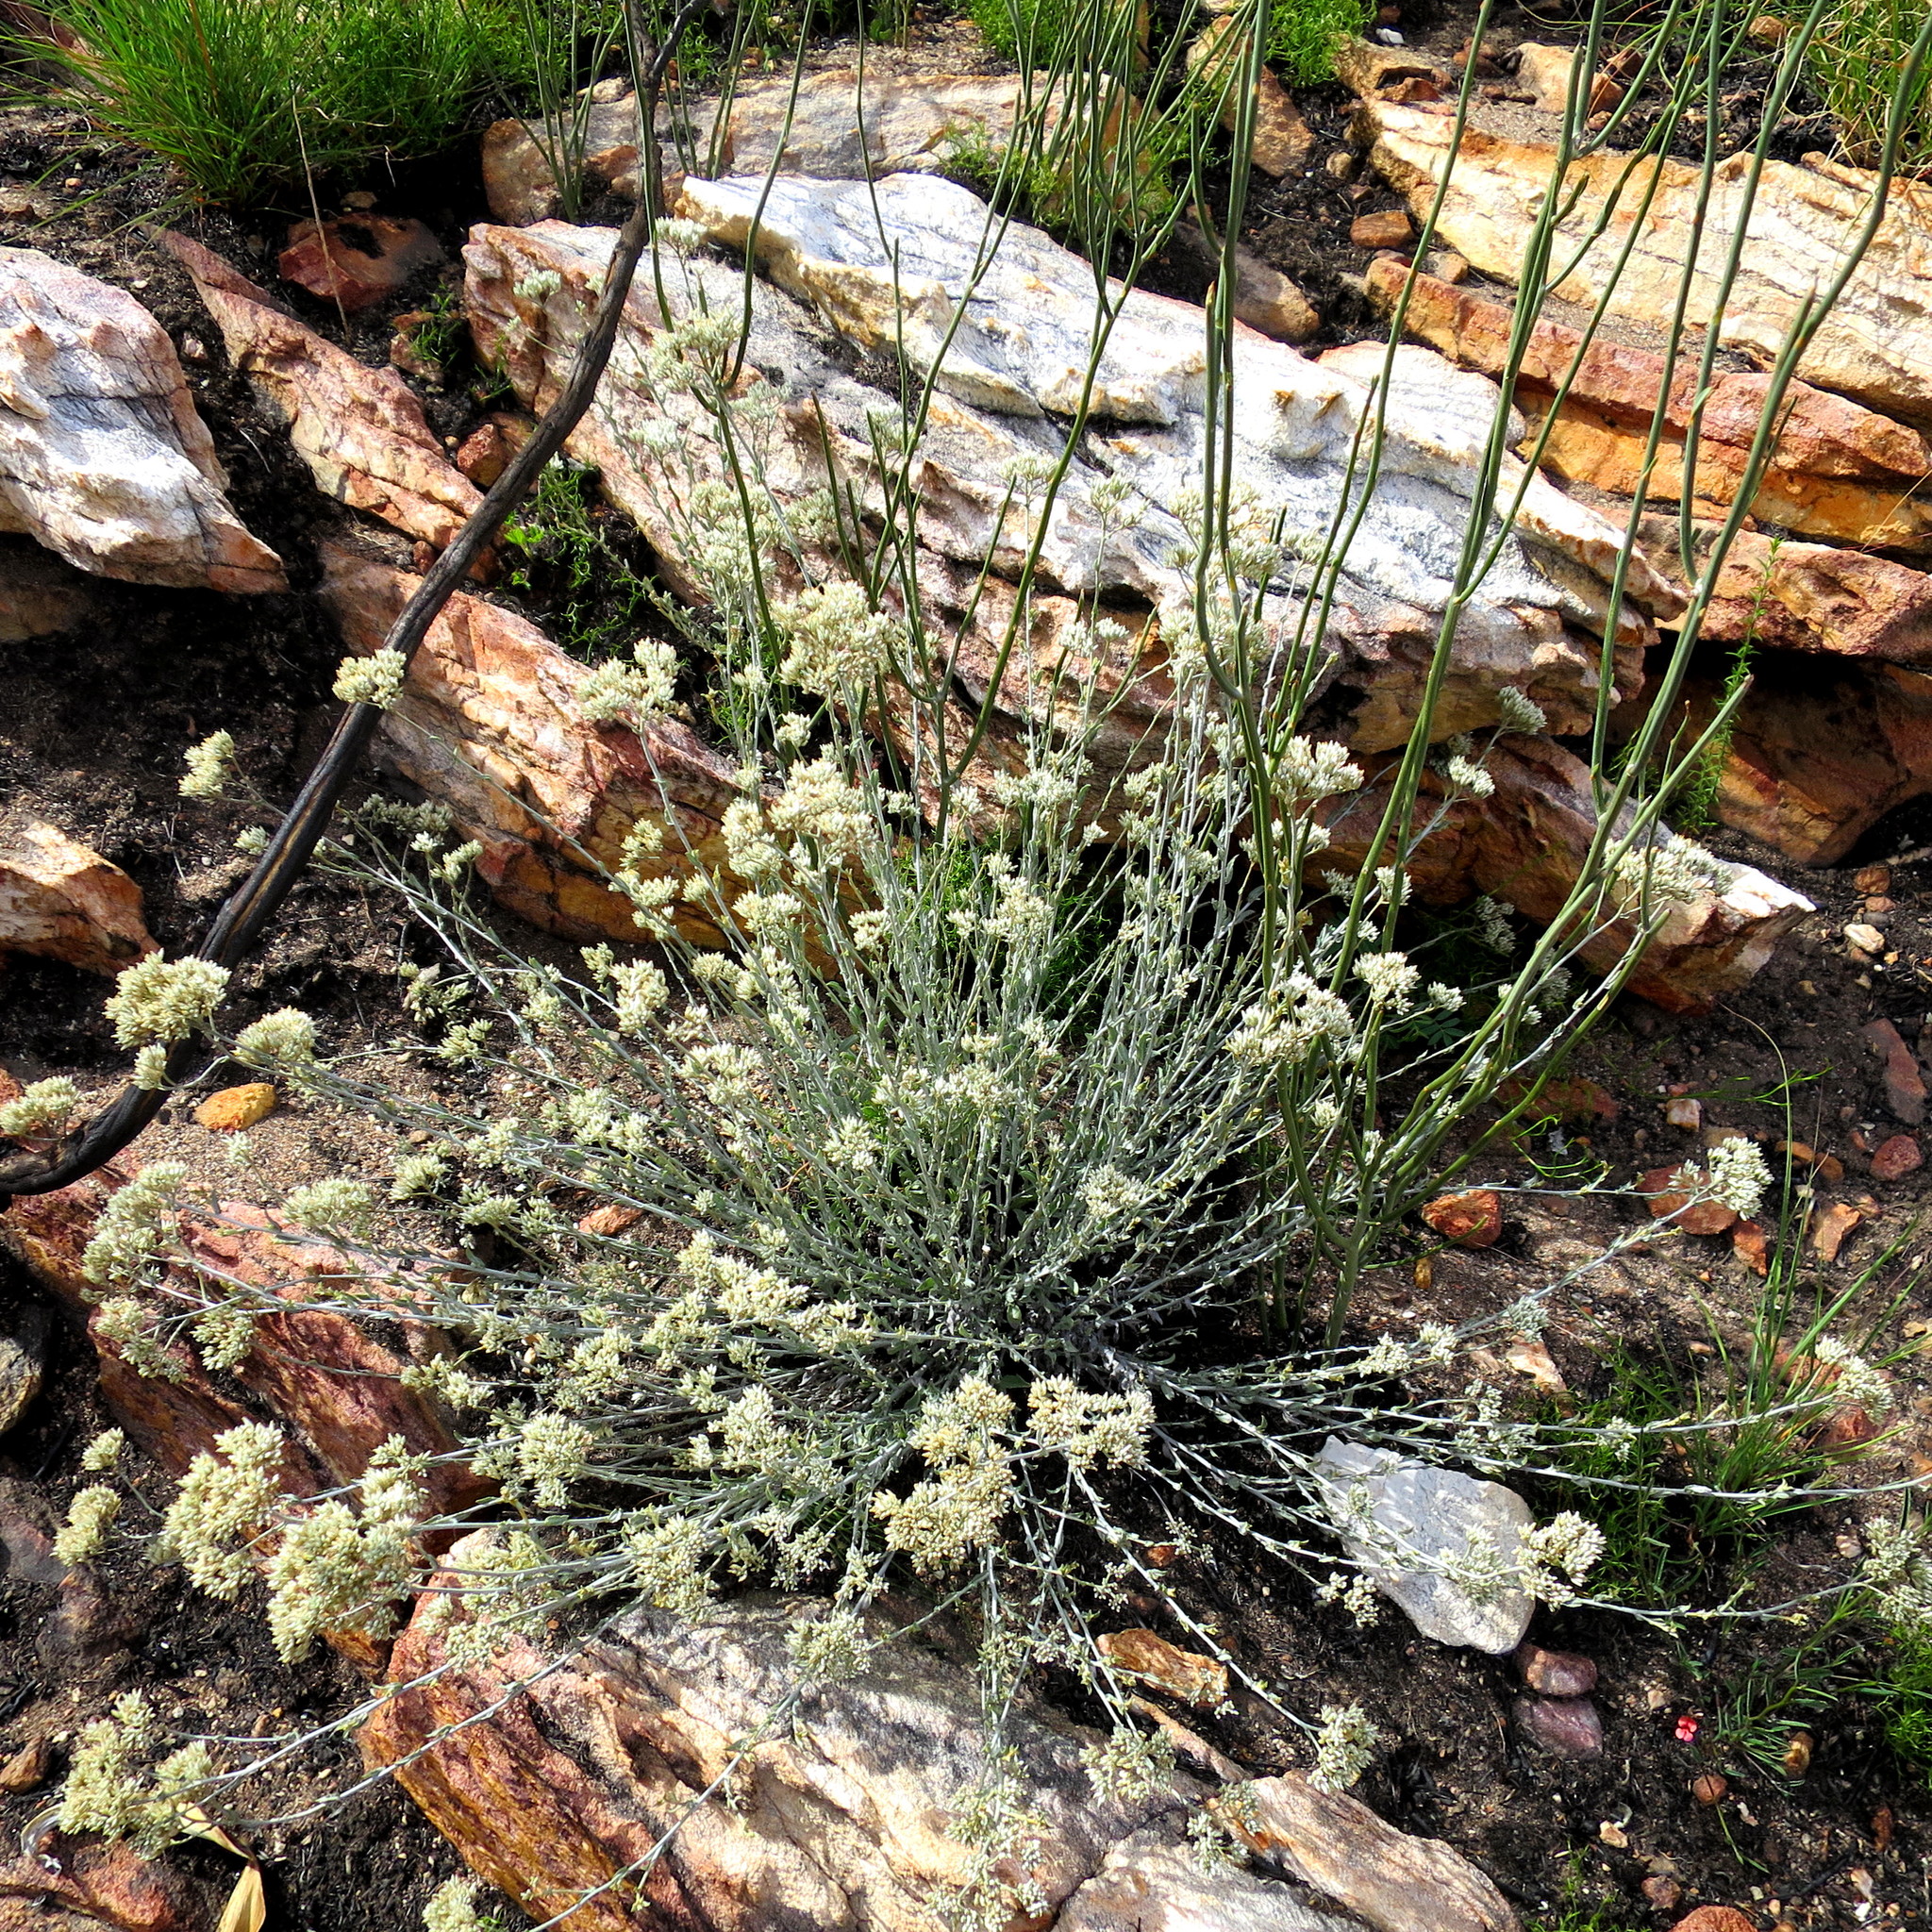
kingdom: Plantae
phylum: Tracheophyta
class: Magnoliopsida
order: Asterales
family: Asteraceae
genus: Helichrysum
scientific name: Helichrysum zeyheri
